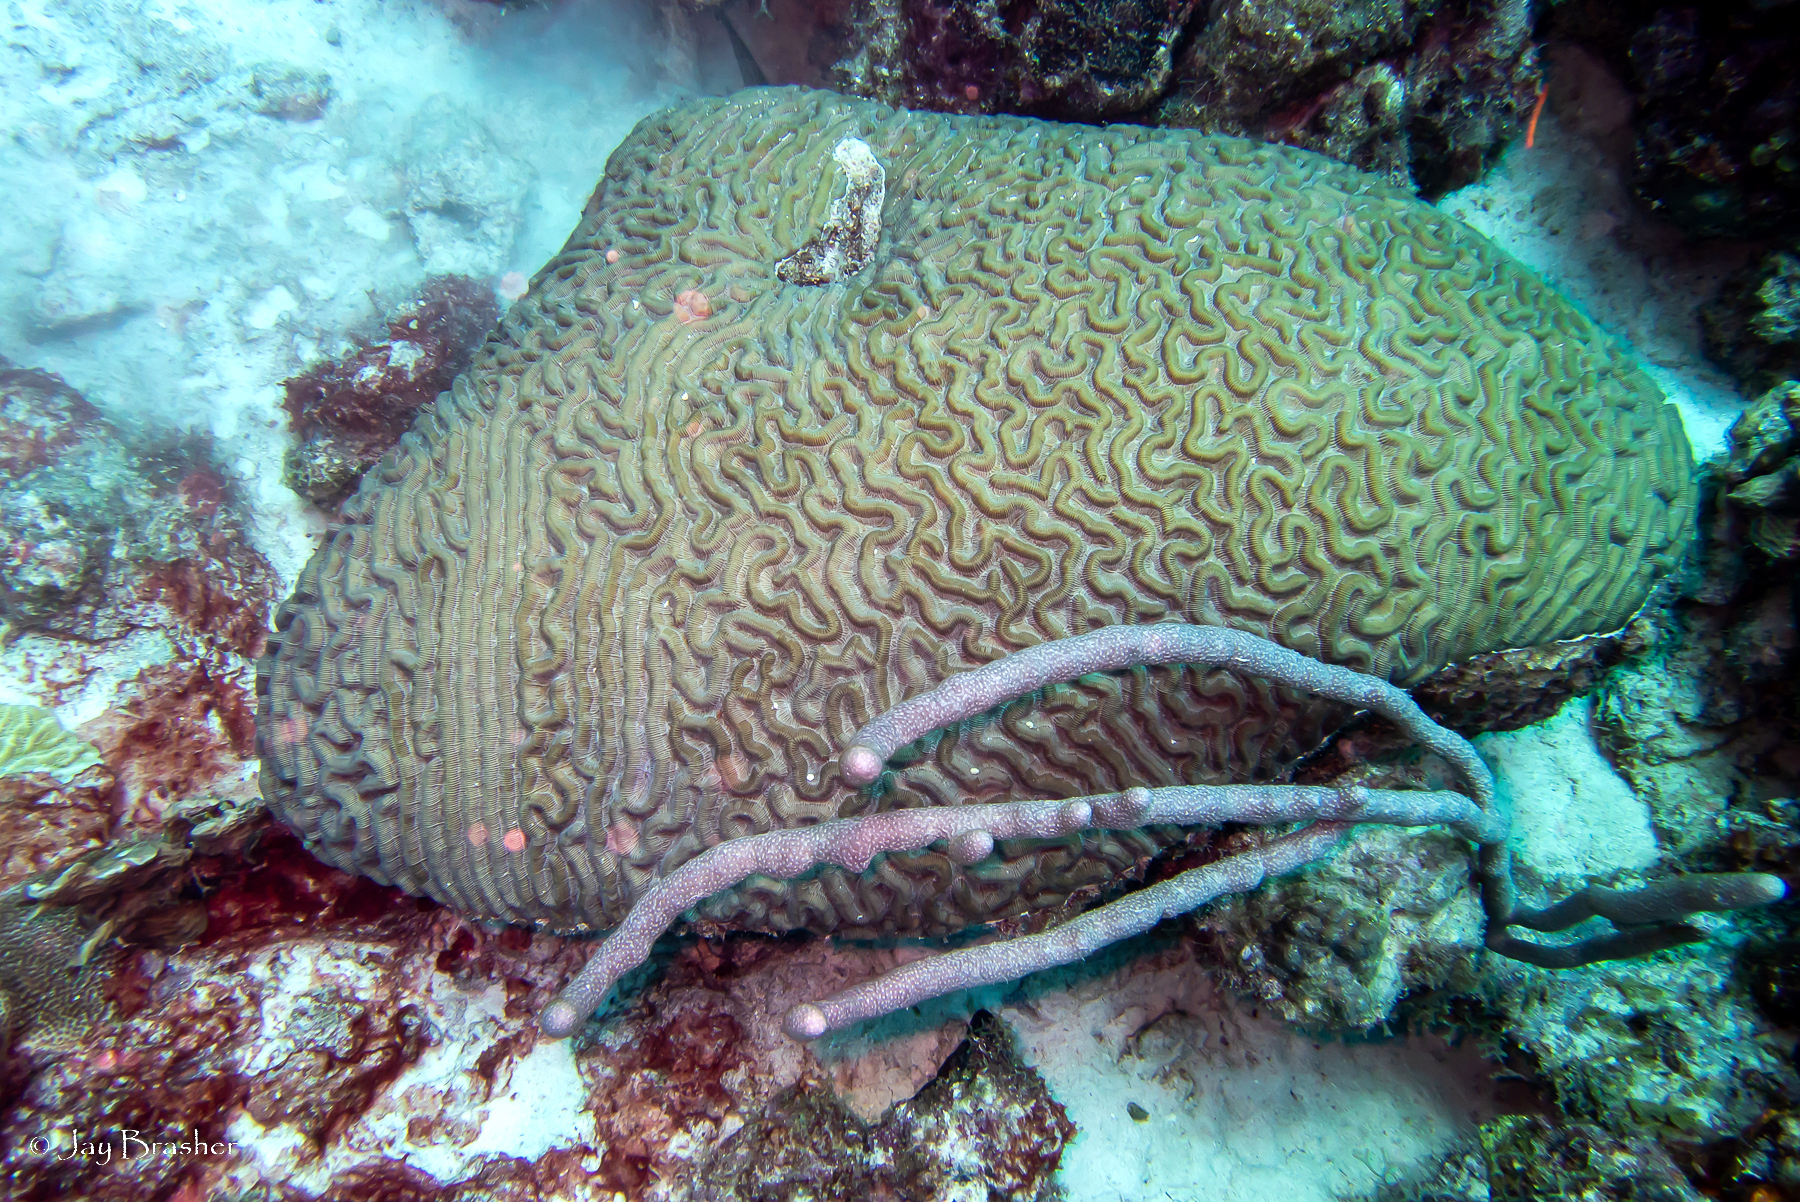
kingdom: Animalia
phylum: Cnidaria
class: Anthozoa
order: Scleractinia
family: Faviidae
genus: Colpophyllia
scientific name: Colpophyllia natans
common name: Boulder brain coral
